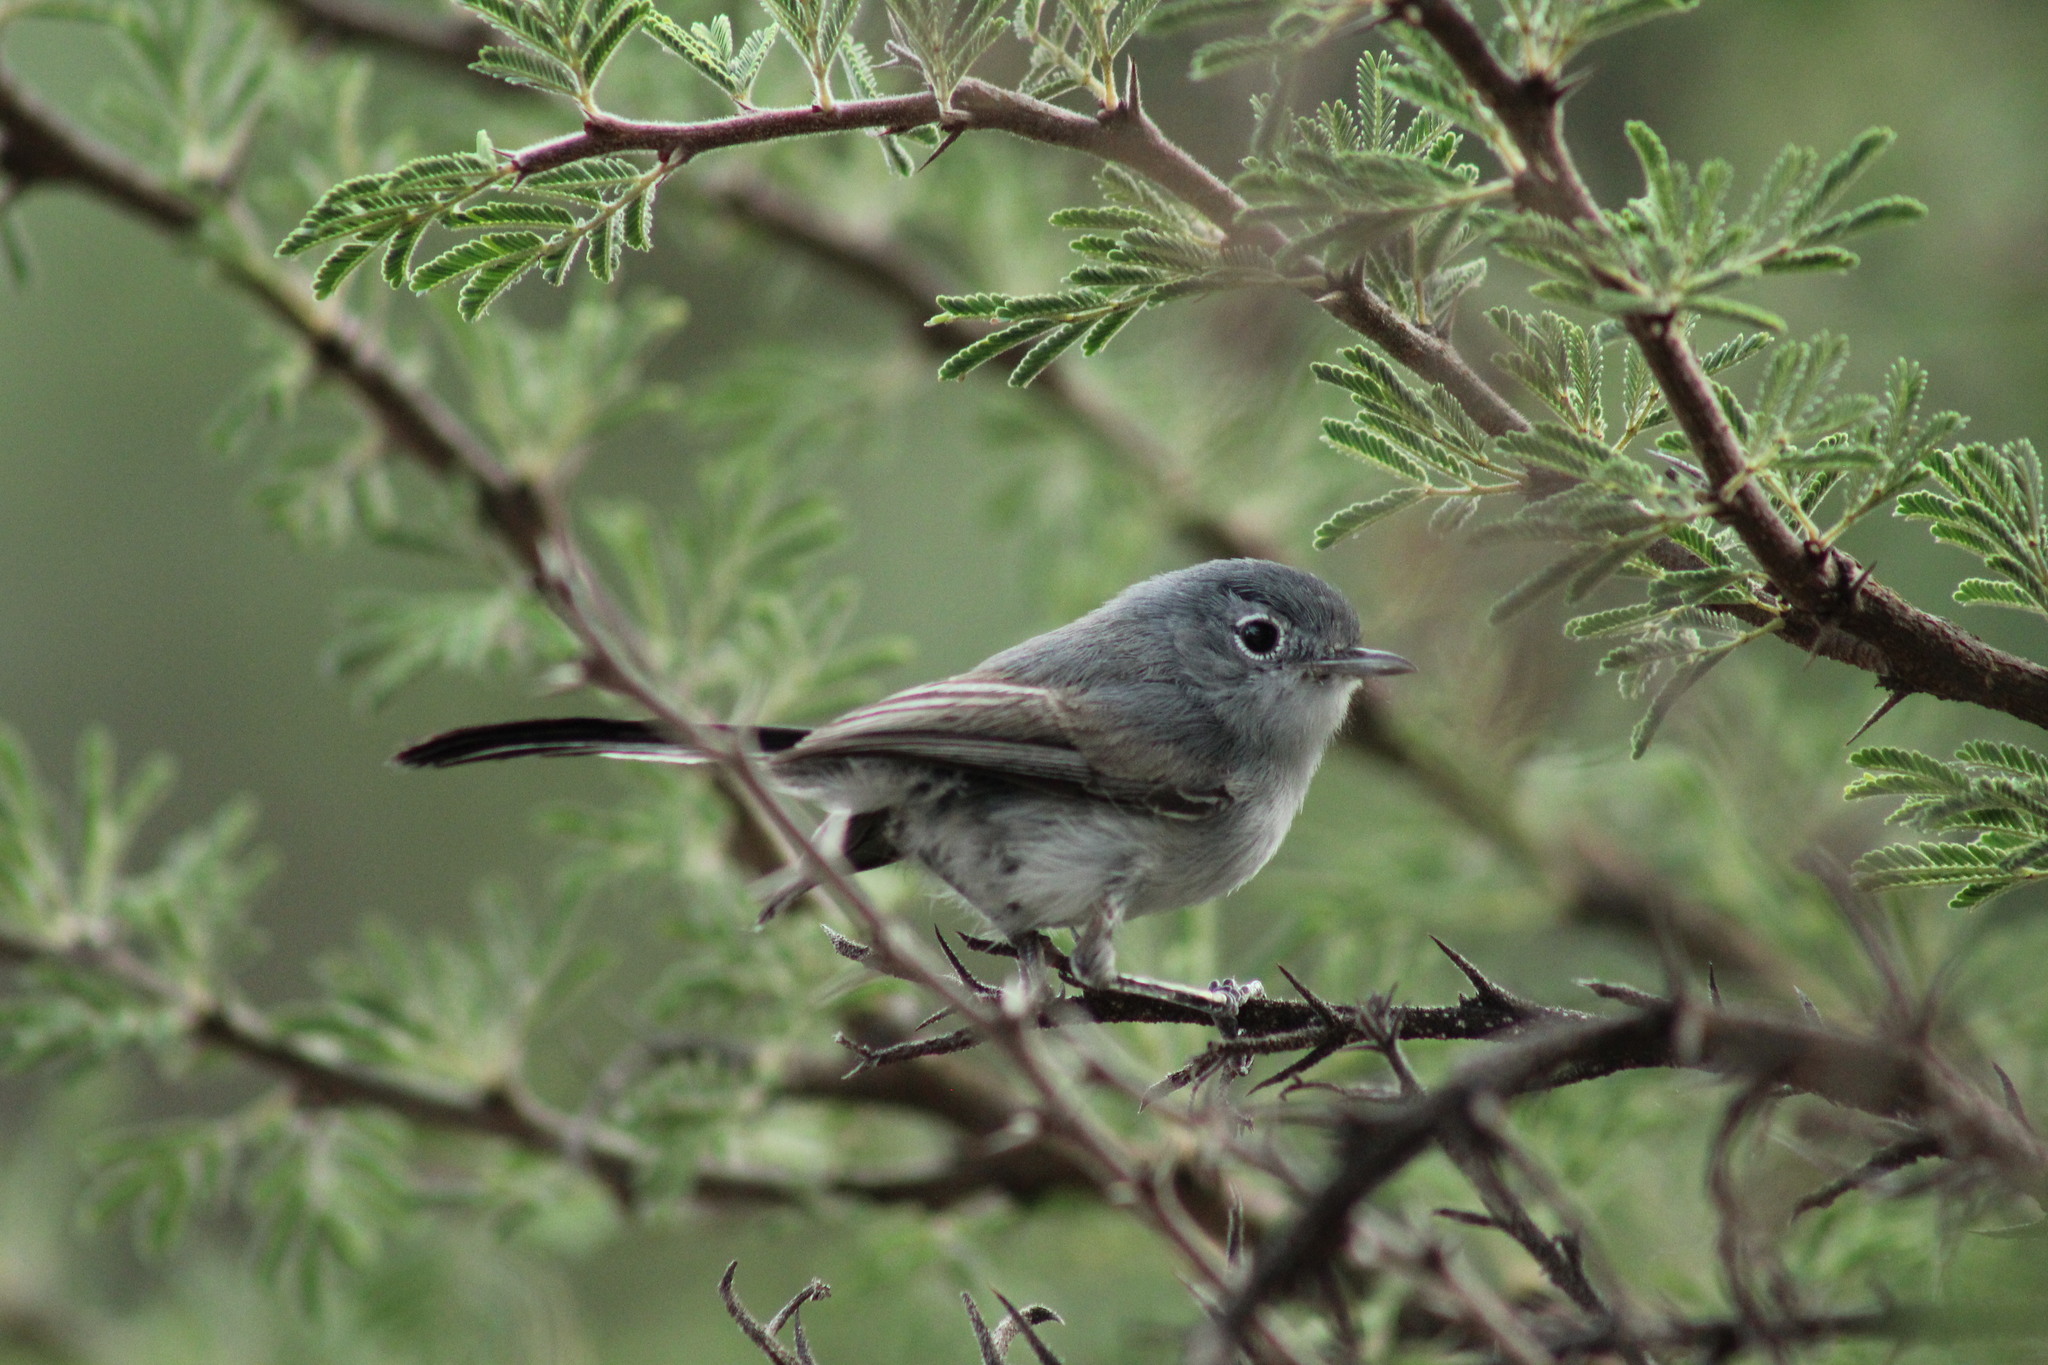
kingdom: Animalia
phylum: Chordata
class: Aves
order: Passeriformes
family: Polioptilidae
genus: Polioptila
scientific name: Polioptila caerulea
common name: Blue-gray gnatcatcher
